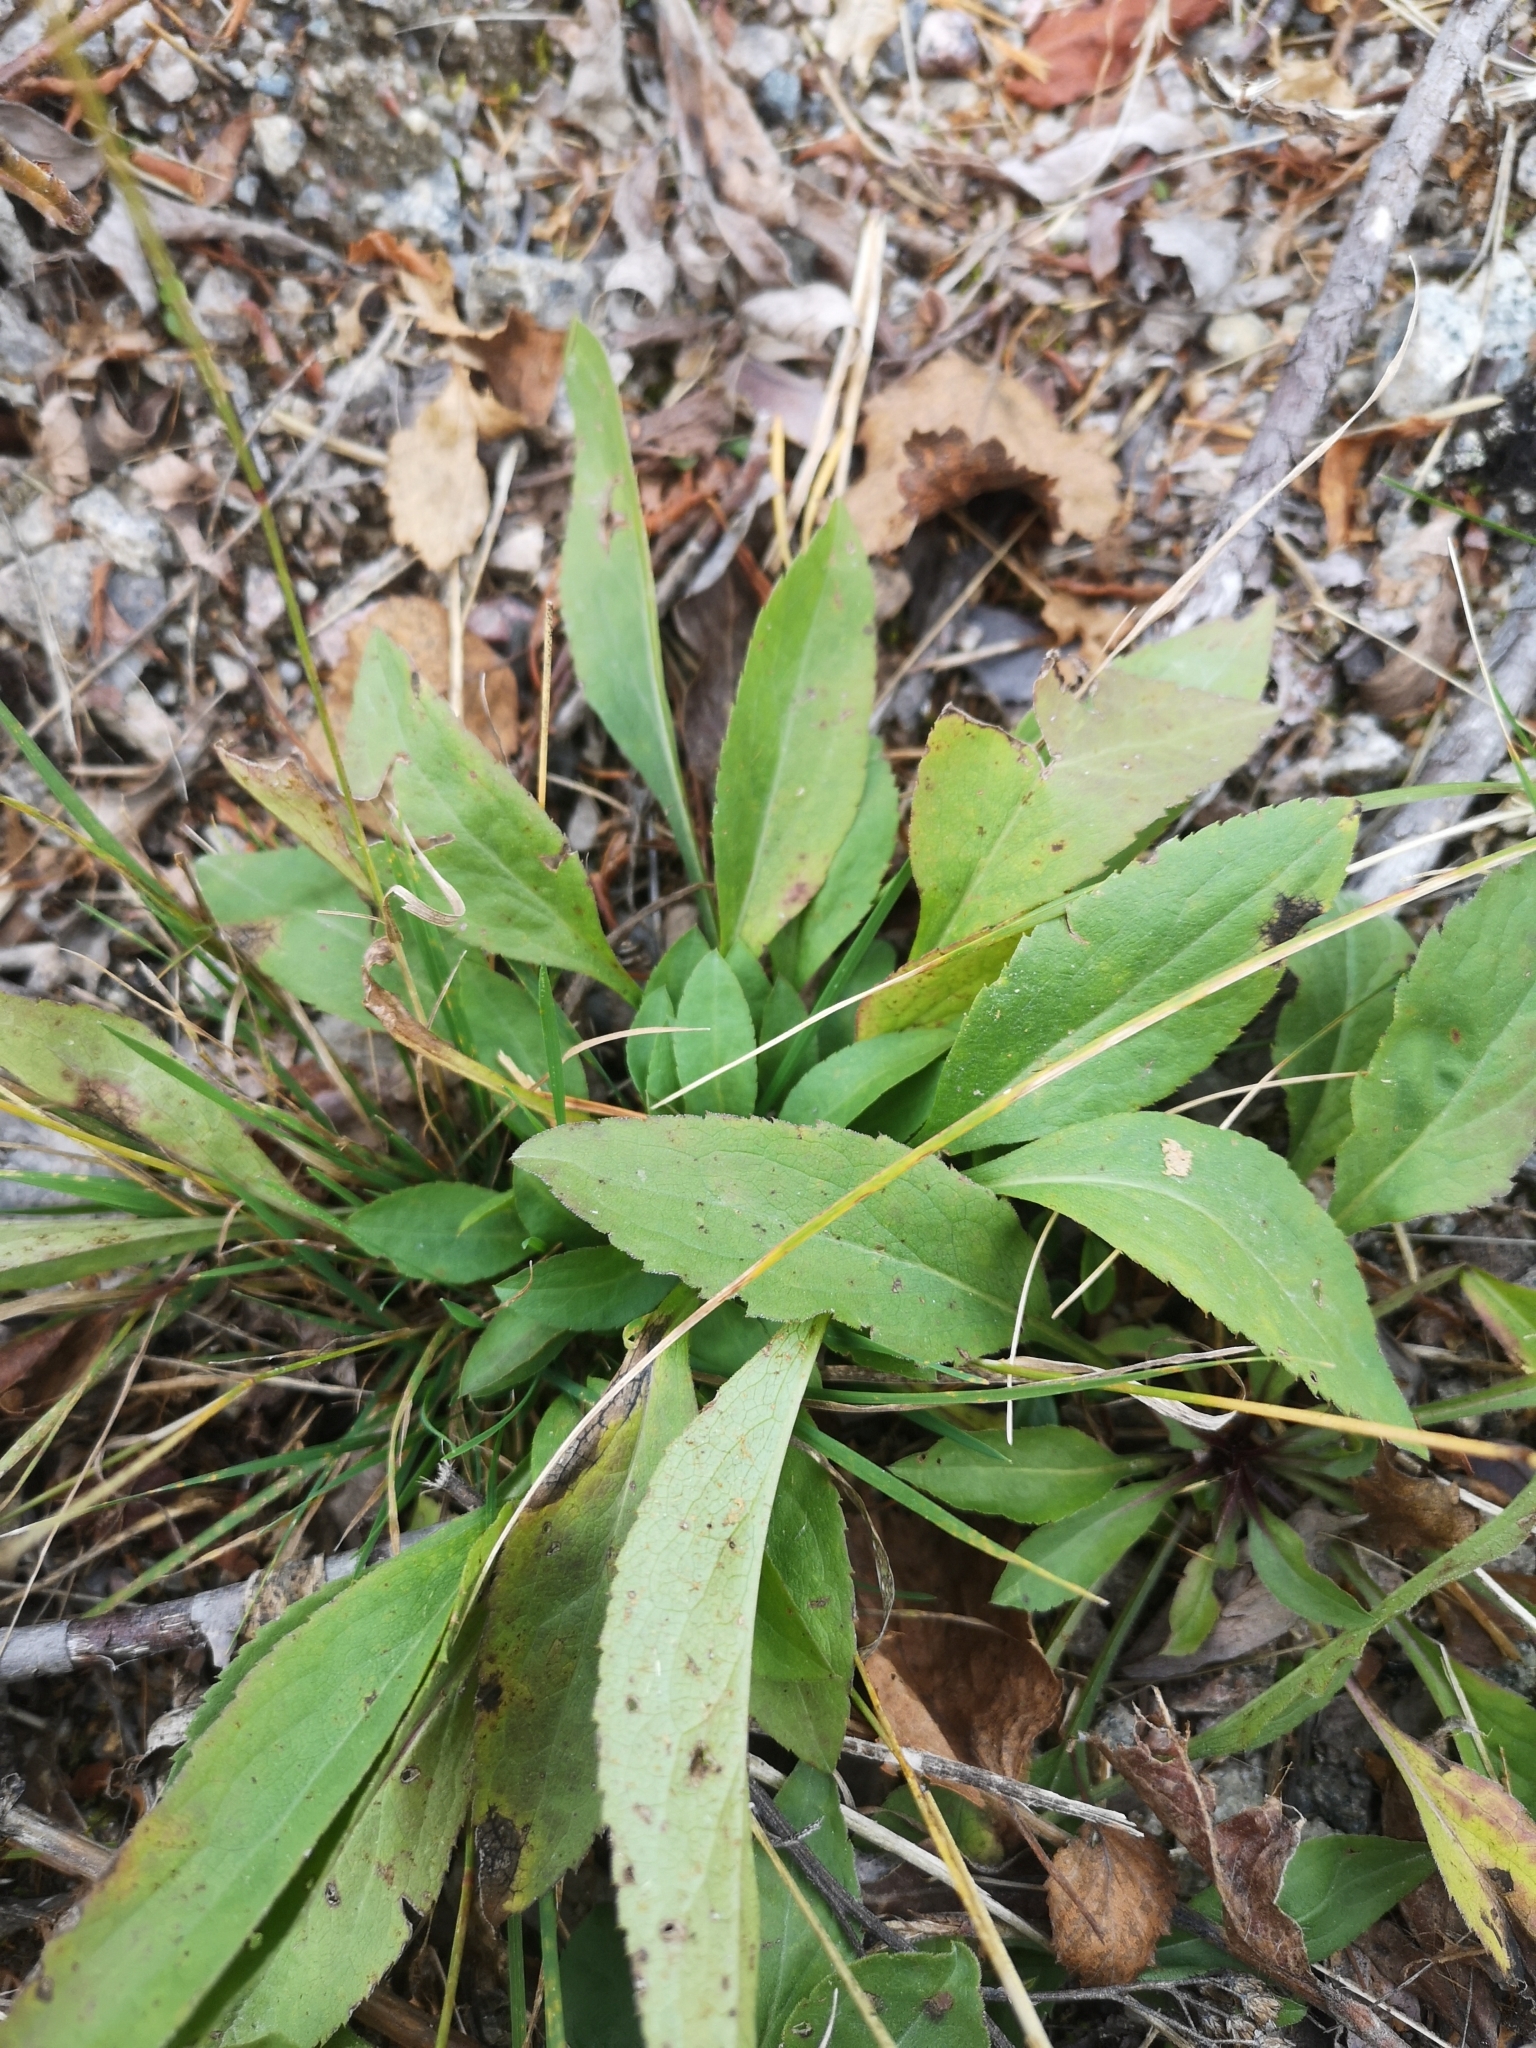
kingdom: Plantae
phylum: Tracheophyta
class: Magnoliopsida
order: Asterales
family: Asteraceae
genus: Solidago
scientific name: Solidago virgaurea
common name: Goldenrod
